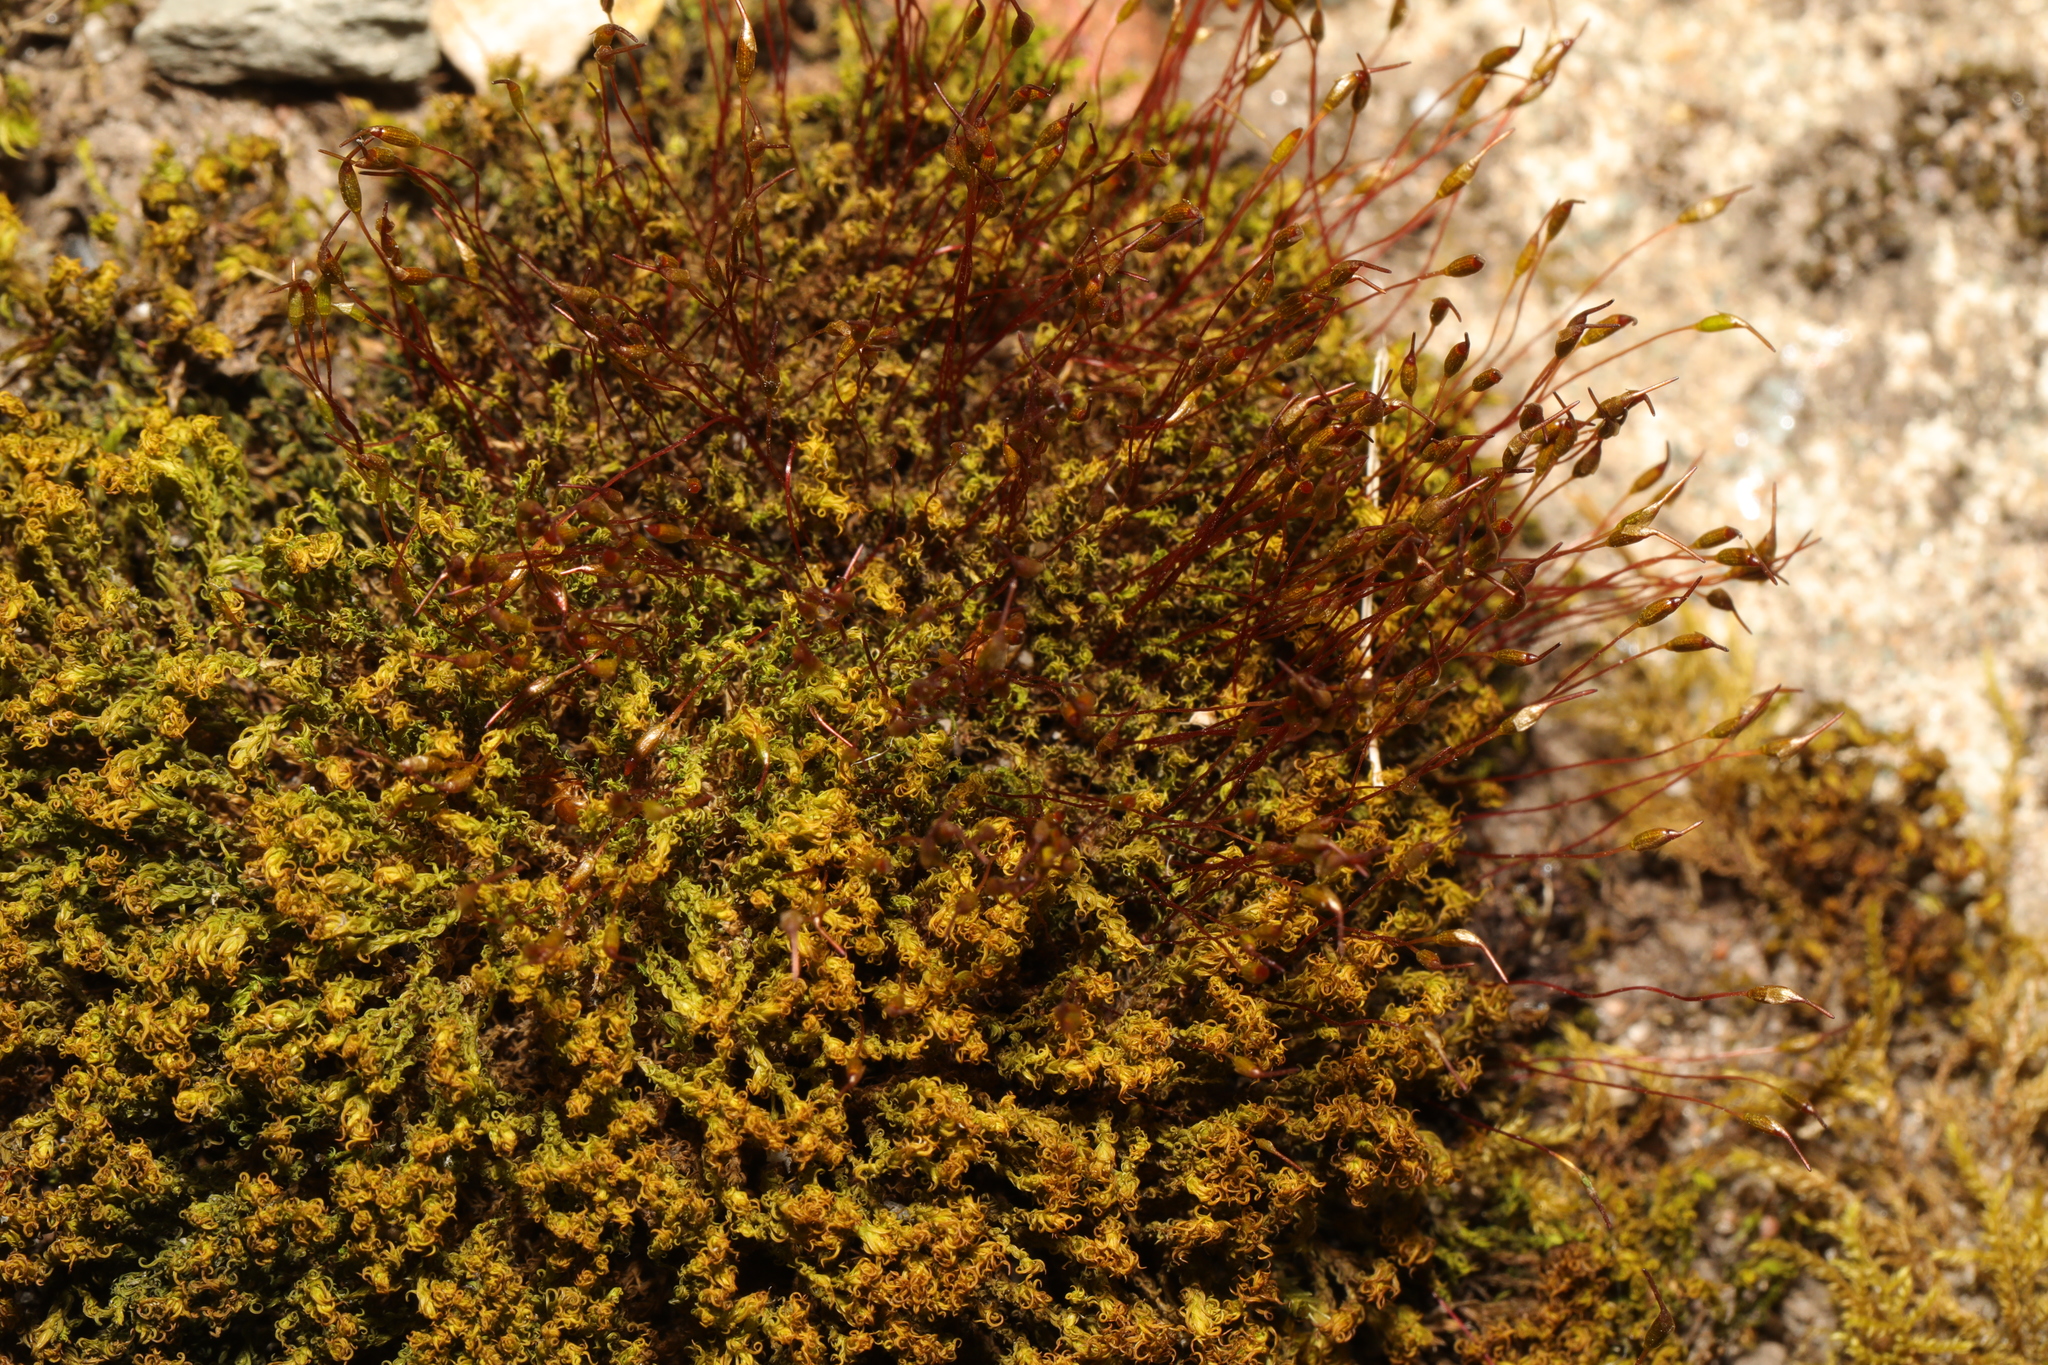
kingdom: Plantae
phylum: Bryophyta
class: Bryopsida
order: Pottiales
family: Pottiaceae
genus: Tortula
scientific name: Tortula muralis
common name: Wall screw-moss
